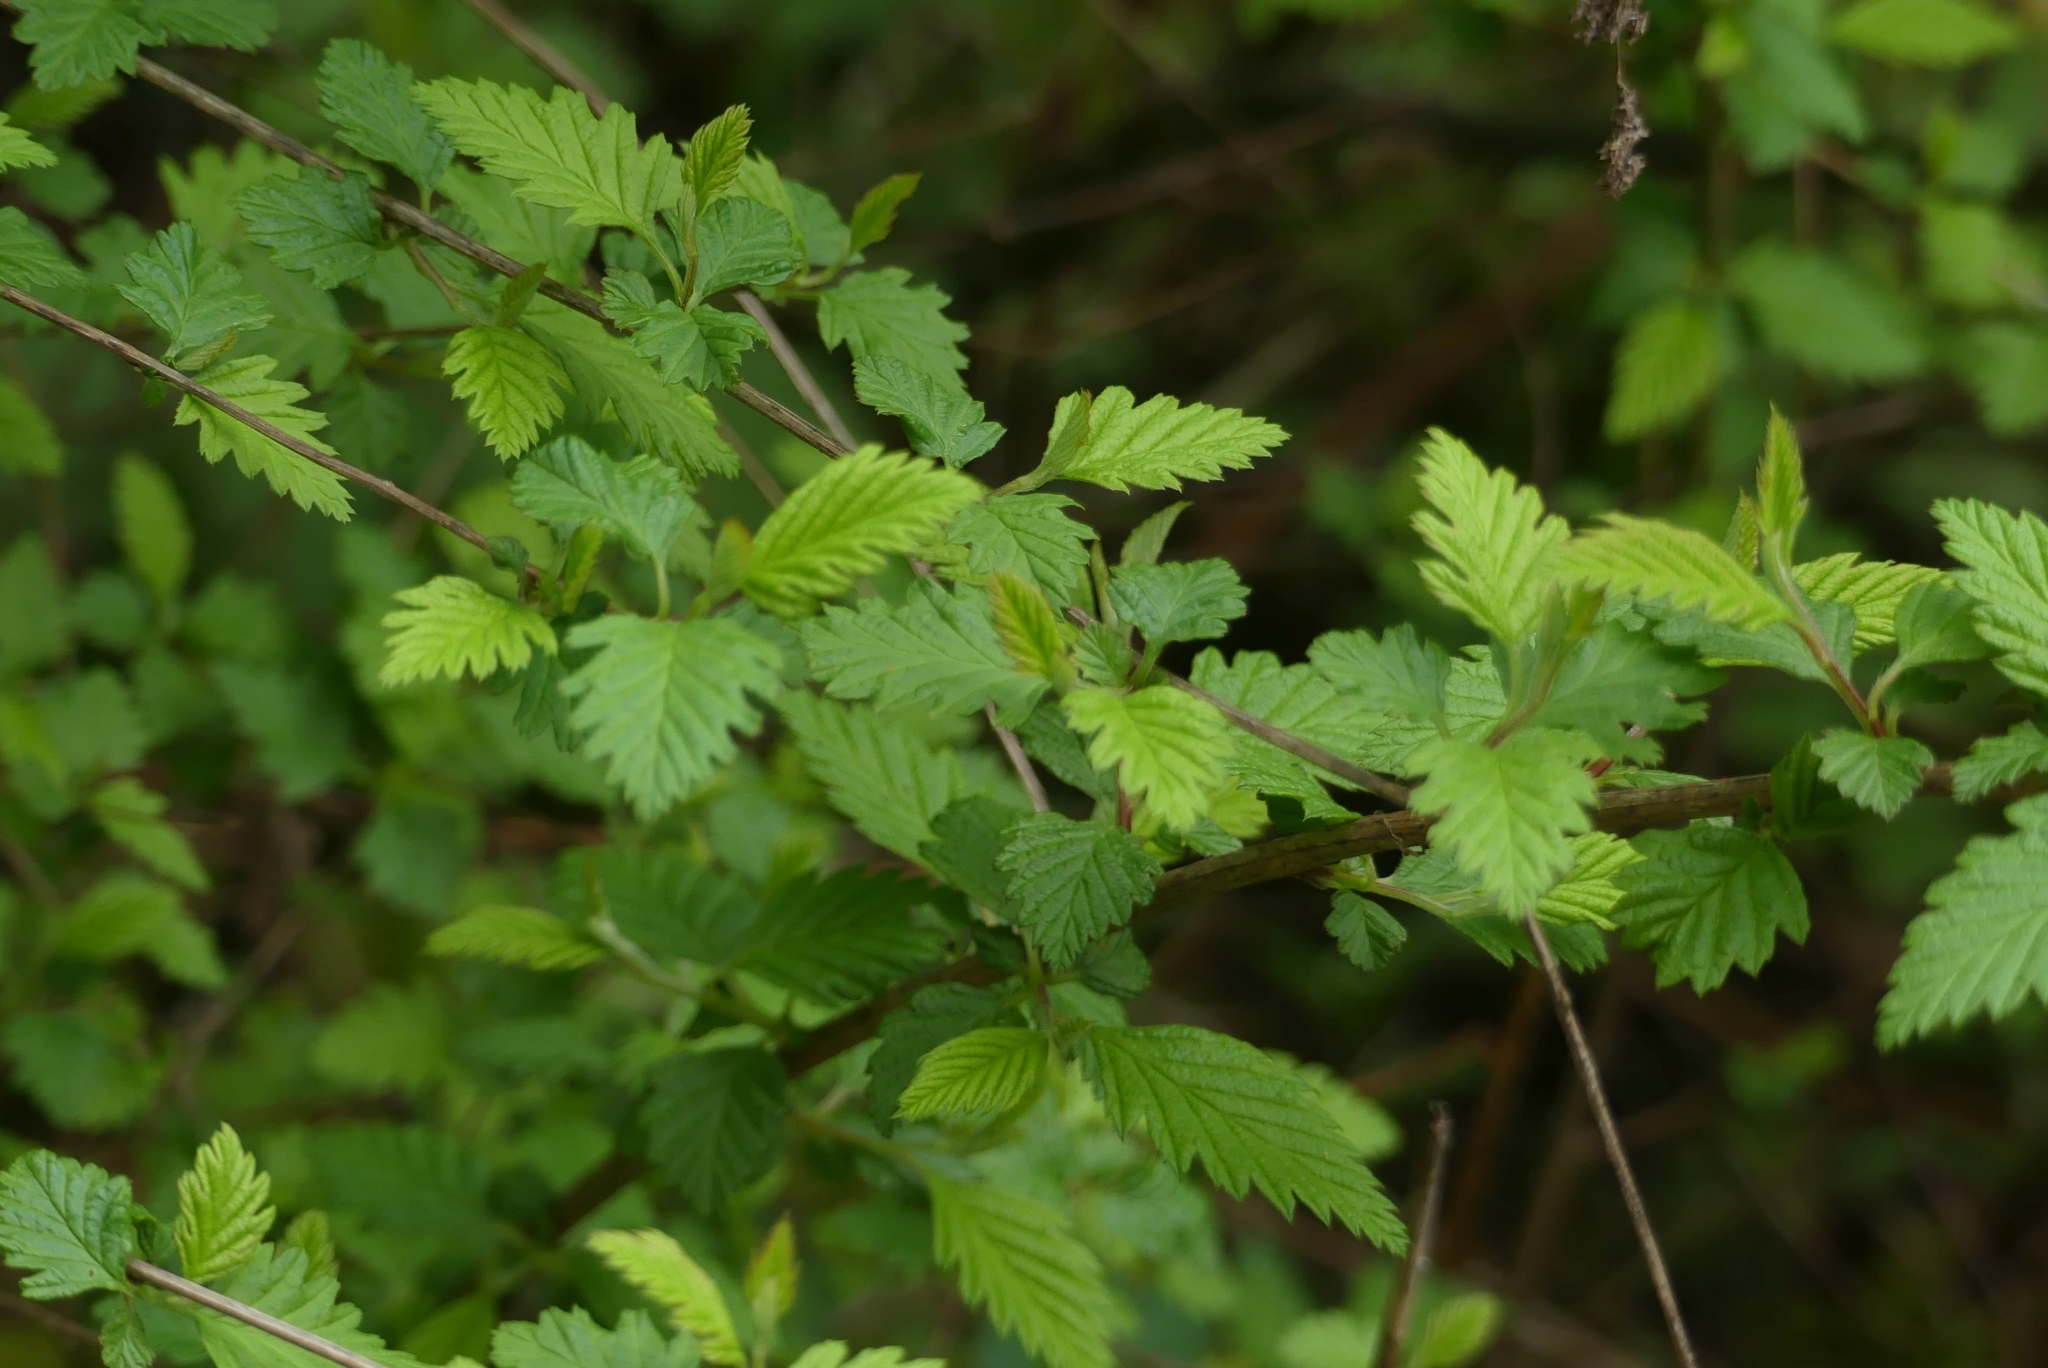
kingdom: Plantae
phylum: Tracheophyta
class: Magnoliopsida
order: Rosales
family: Rosaceae
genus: Holodiscus
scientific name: Holodiscus discolor
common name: Oceanspray
